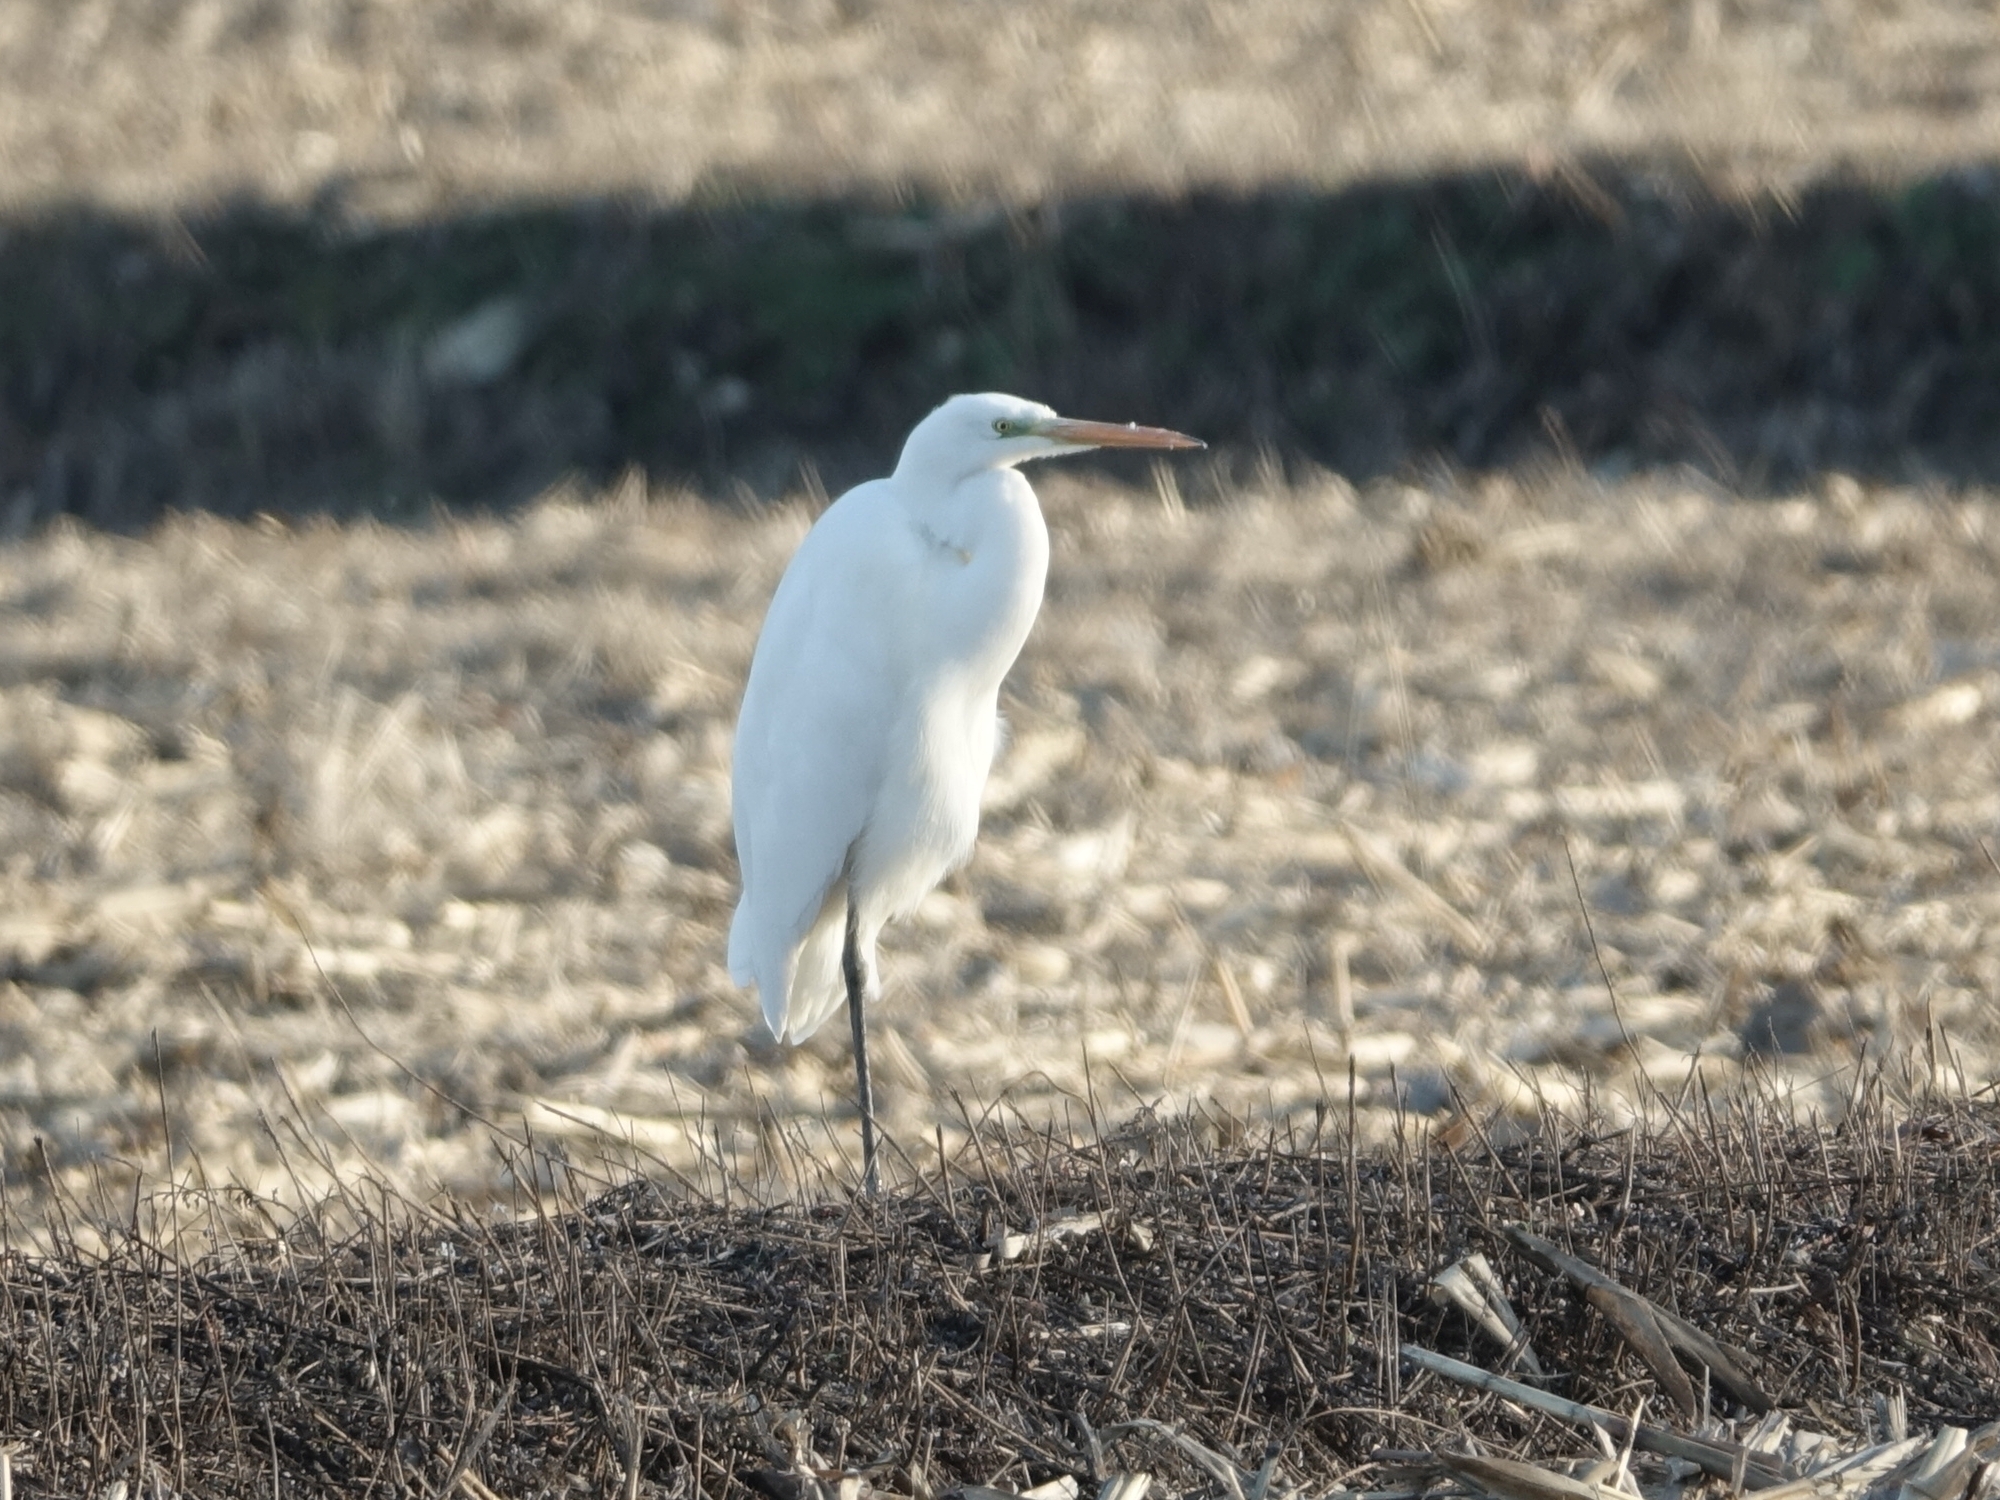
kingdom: Animalia
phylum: Chordata
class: Aves
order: Pelecaniformes
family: Ardeidae
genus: Ardea
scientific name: Ardea alba
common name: Great egret
